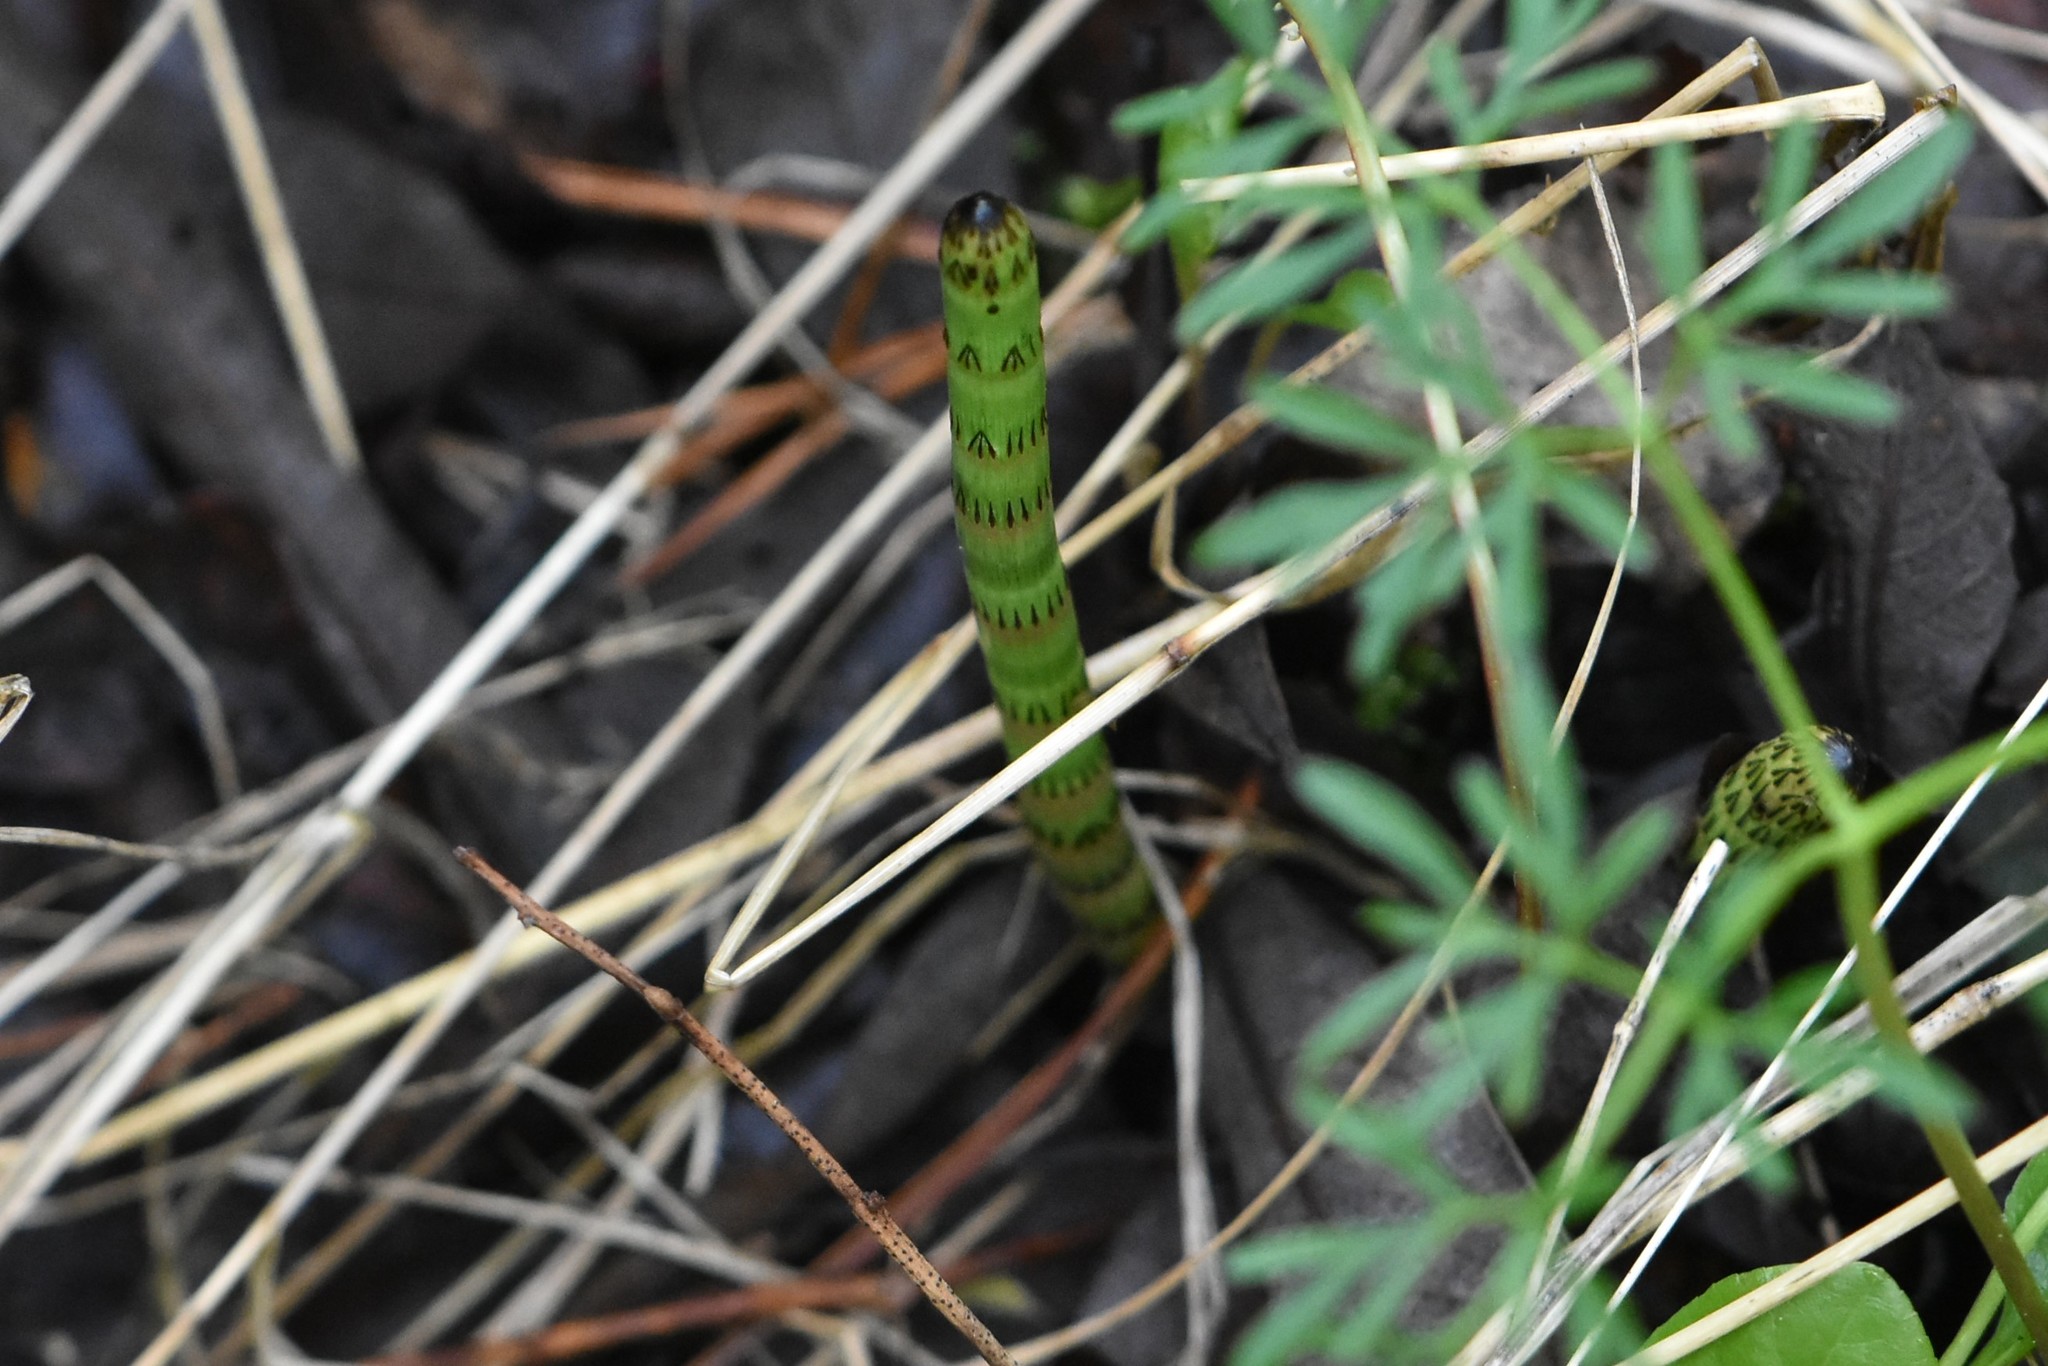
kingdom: Plantae
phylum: Tracheophyta
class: Polypodiopsida
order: Equisetales
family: Equisetaceae
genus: Equisetum
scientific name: Equisetum fluviatile
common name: Water horsetail
